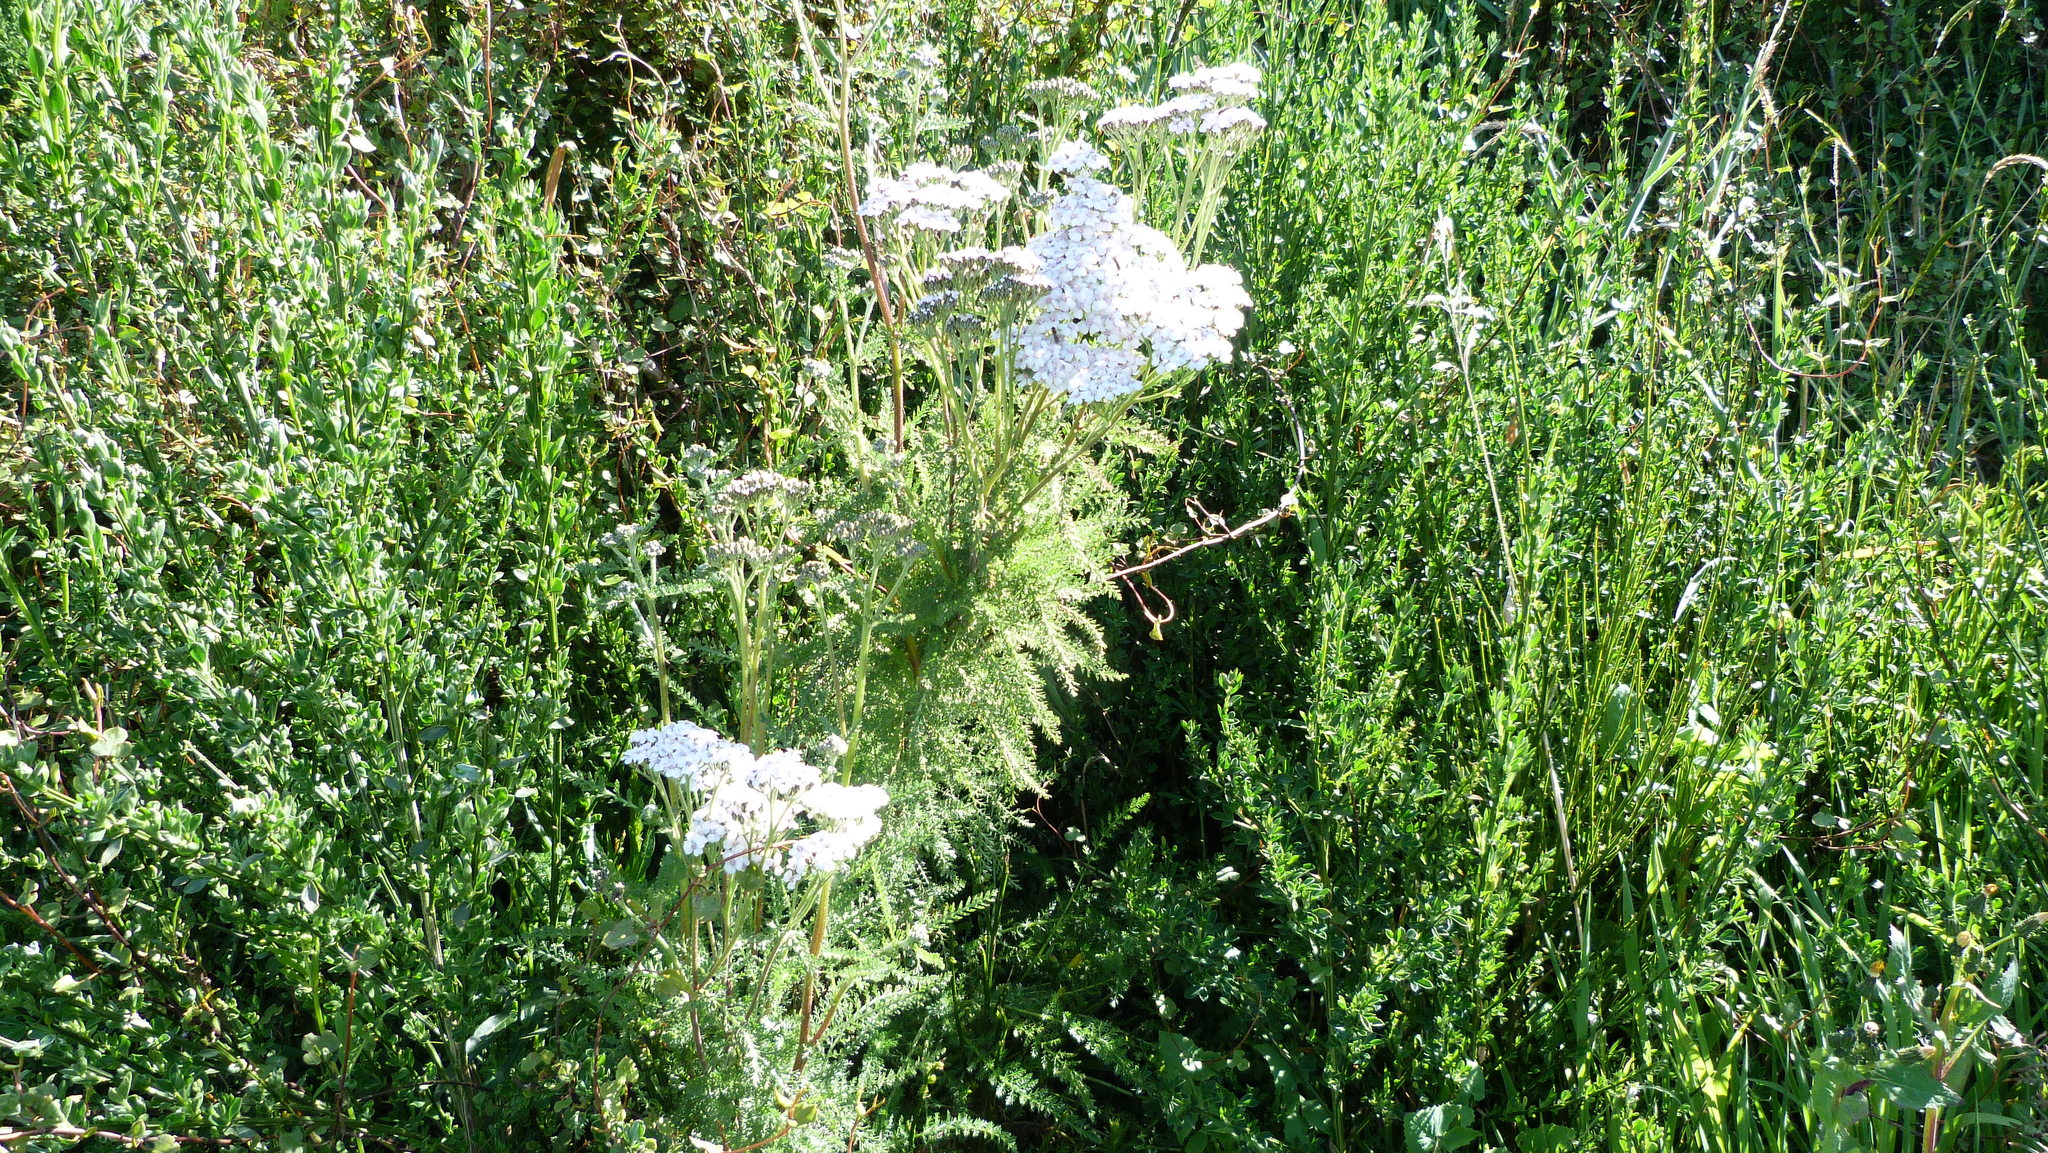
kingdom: Plantae
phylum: Tracheophyta
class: Magnoliopsida
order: Asterales
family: Asteraceae
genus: Achillea
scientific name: Achillea millefolium
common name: Yarrow
